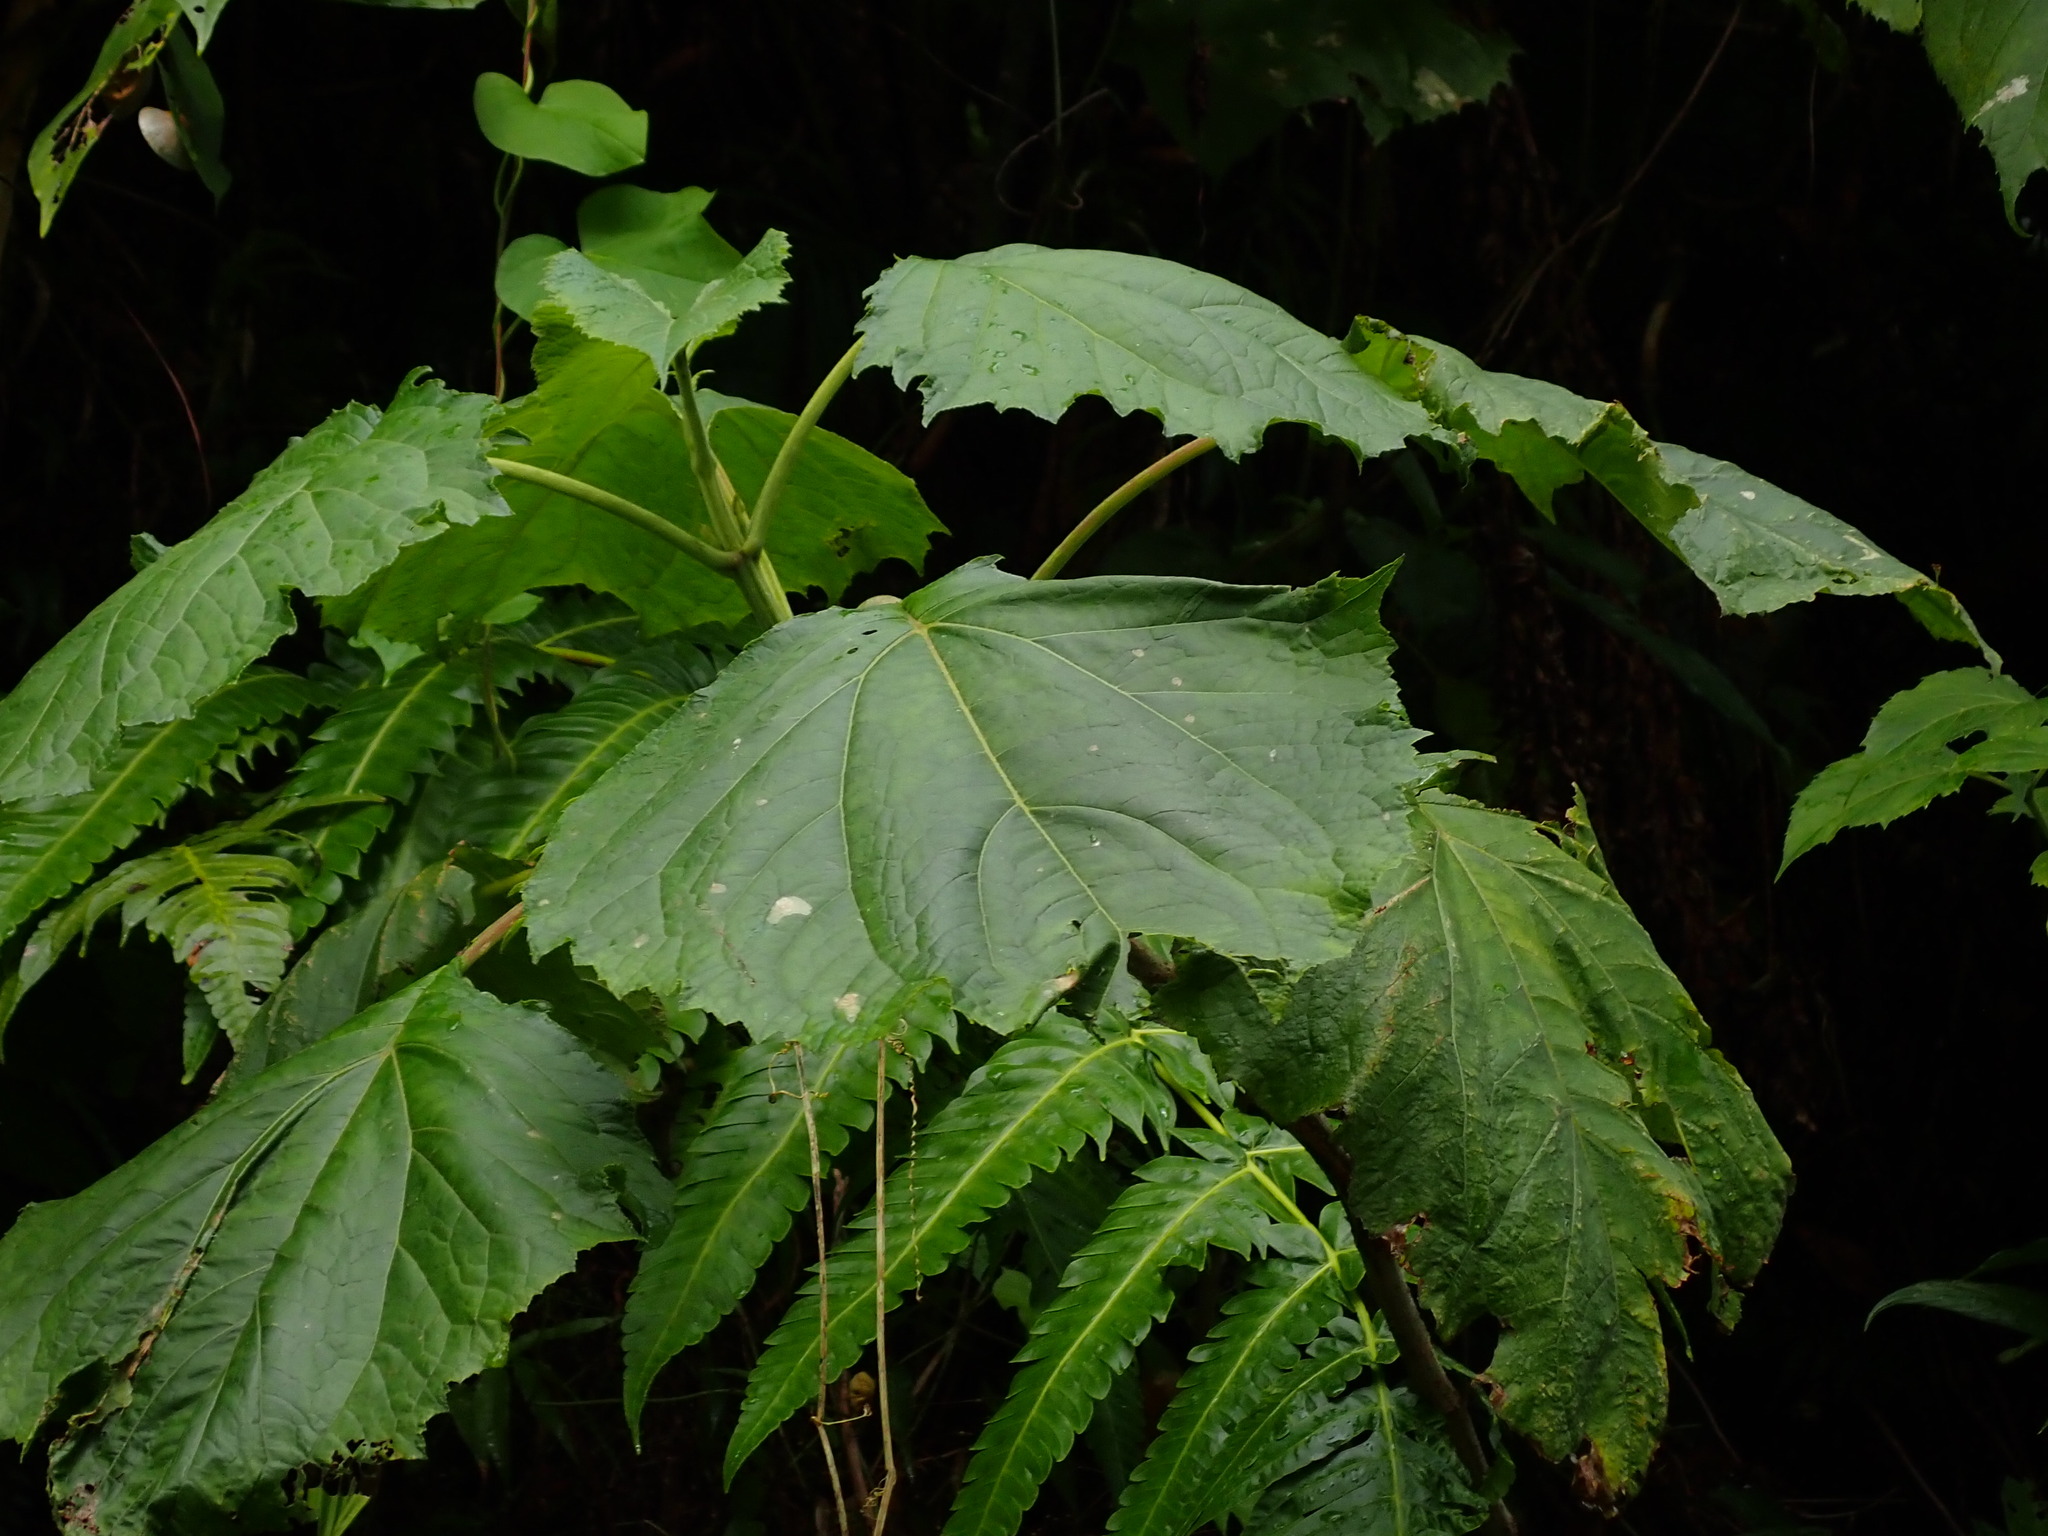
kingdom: Plantae
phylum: Tracheophyta
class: Magnoliopsida
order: Asterales
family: Asteraceae
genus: Clibadium
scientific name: Clibadium erosum
